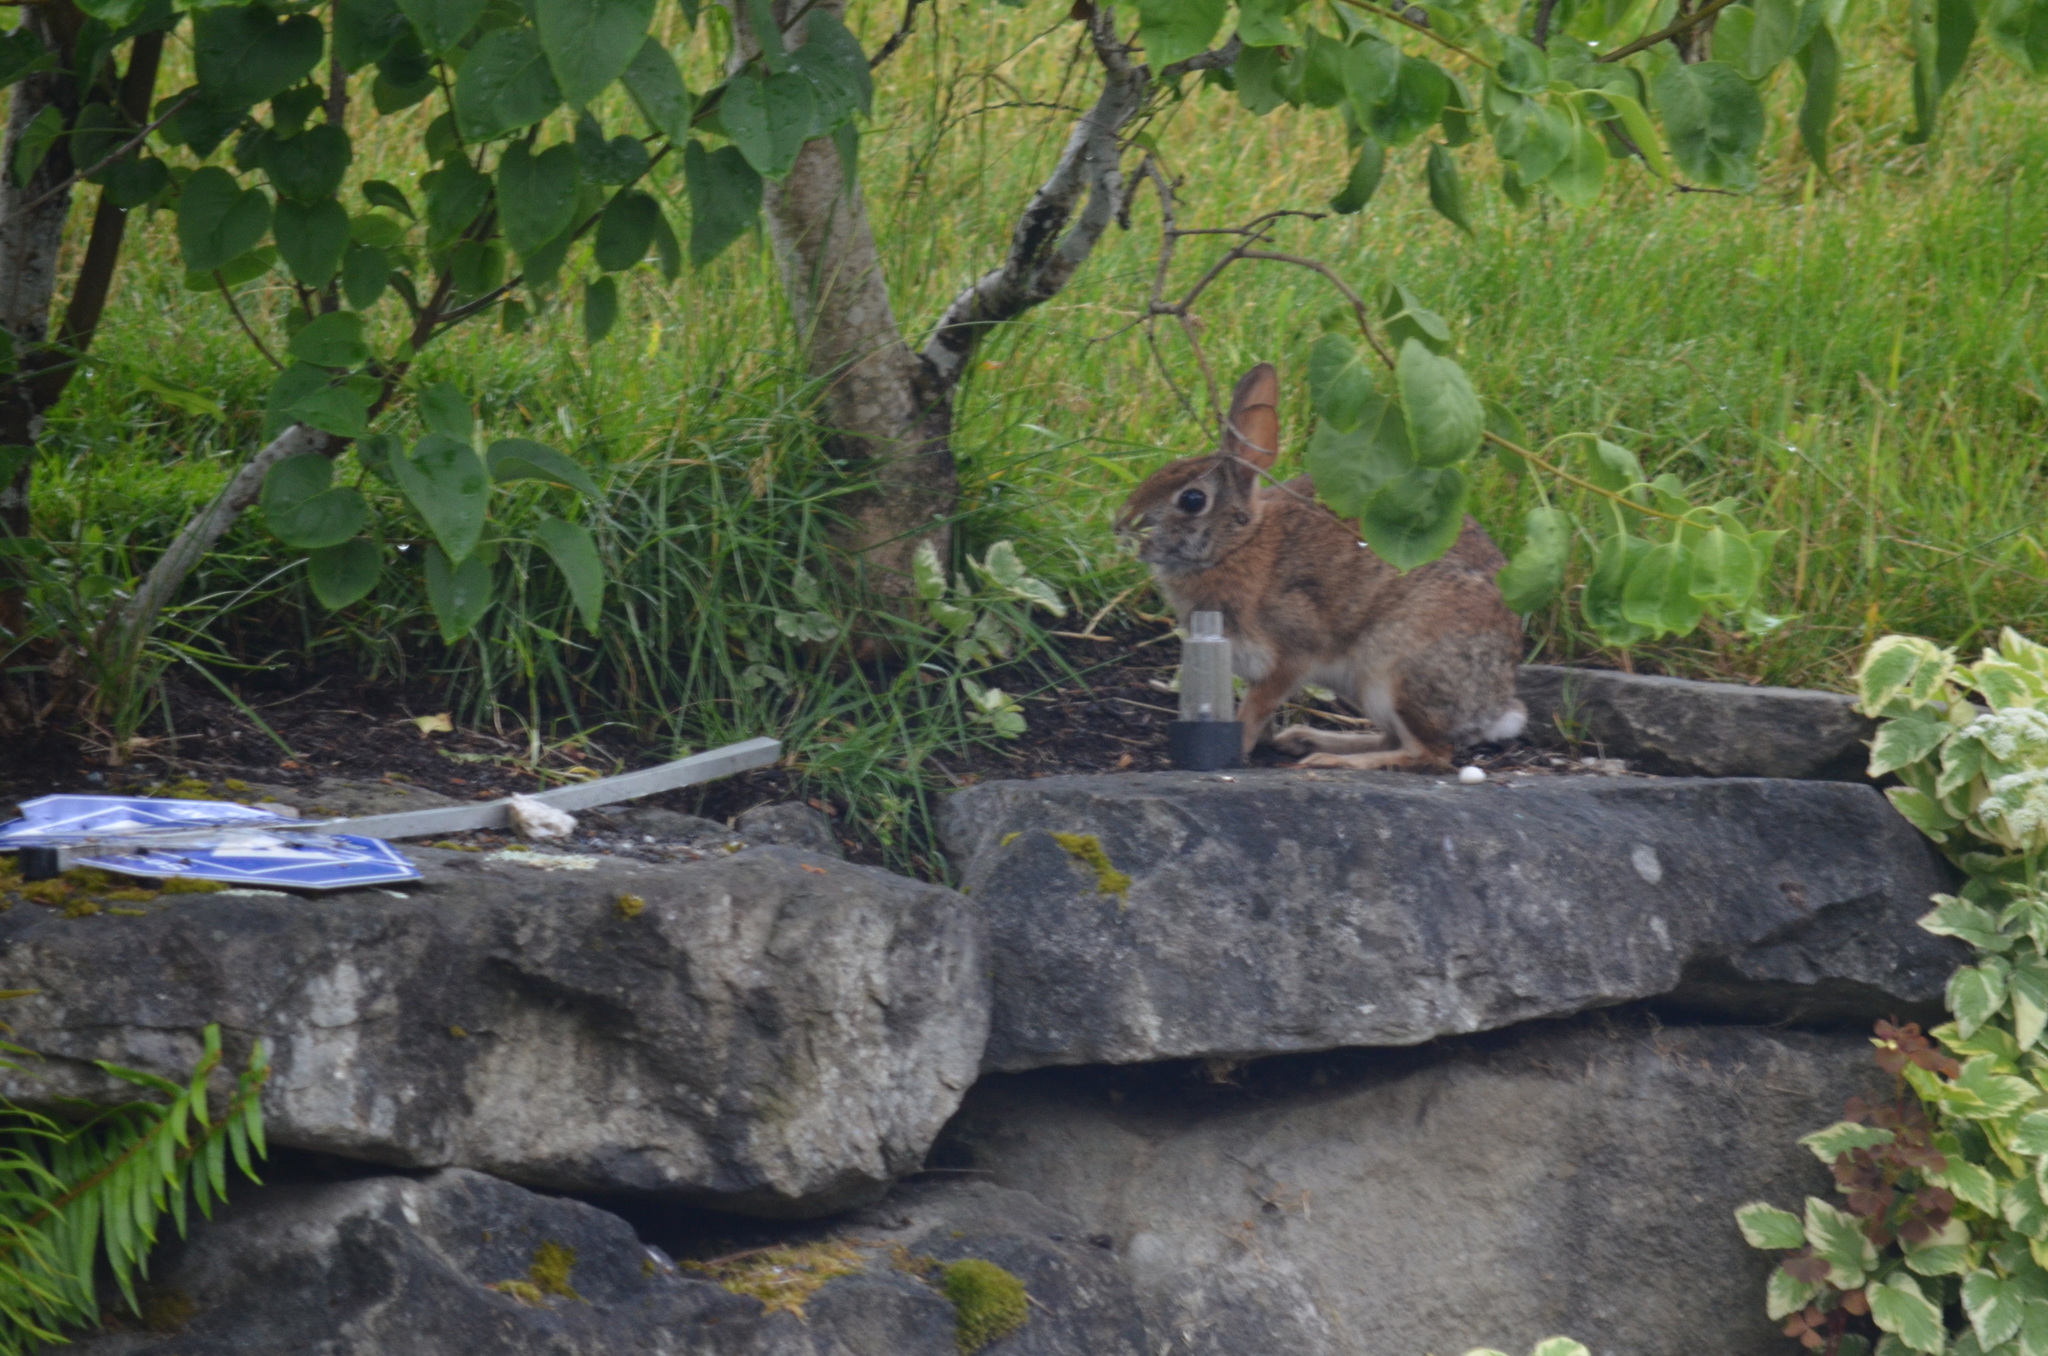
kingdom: Animalia
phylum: Chordata
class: Mammalia
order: Lagomorpha
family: Leporidae
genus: Sylvilagus
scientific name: Sylvilagus floridanus
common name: Eastern cottontail
